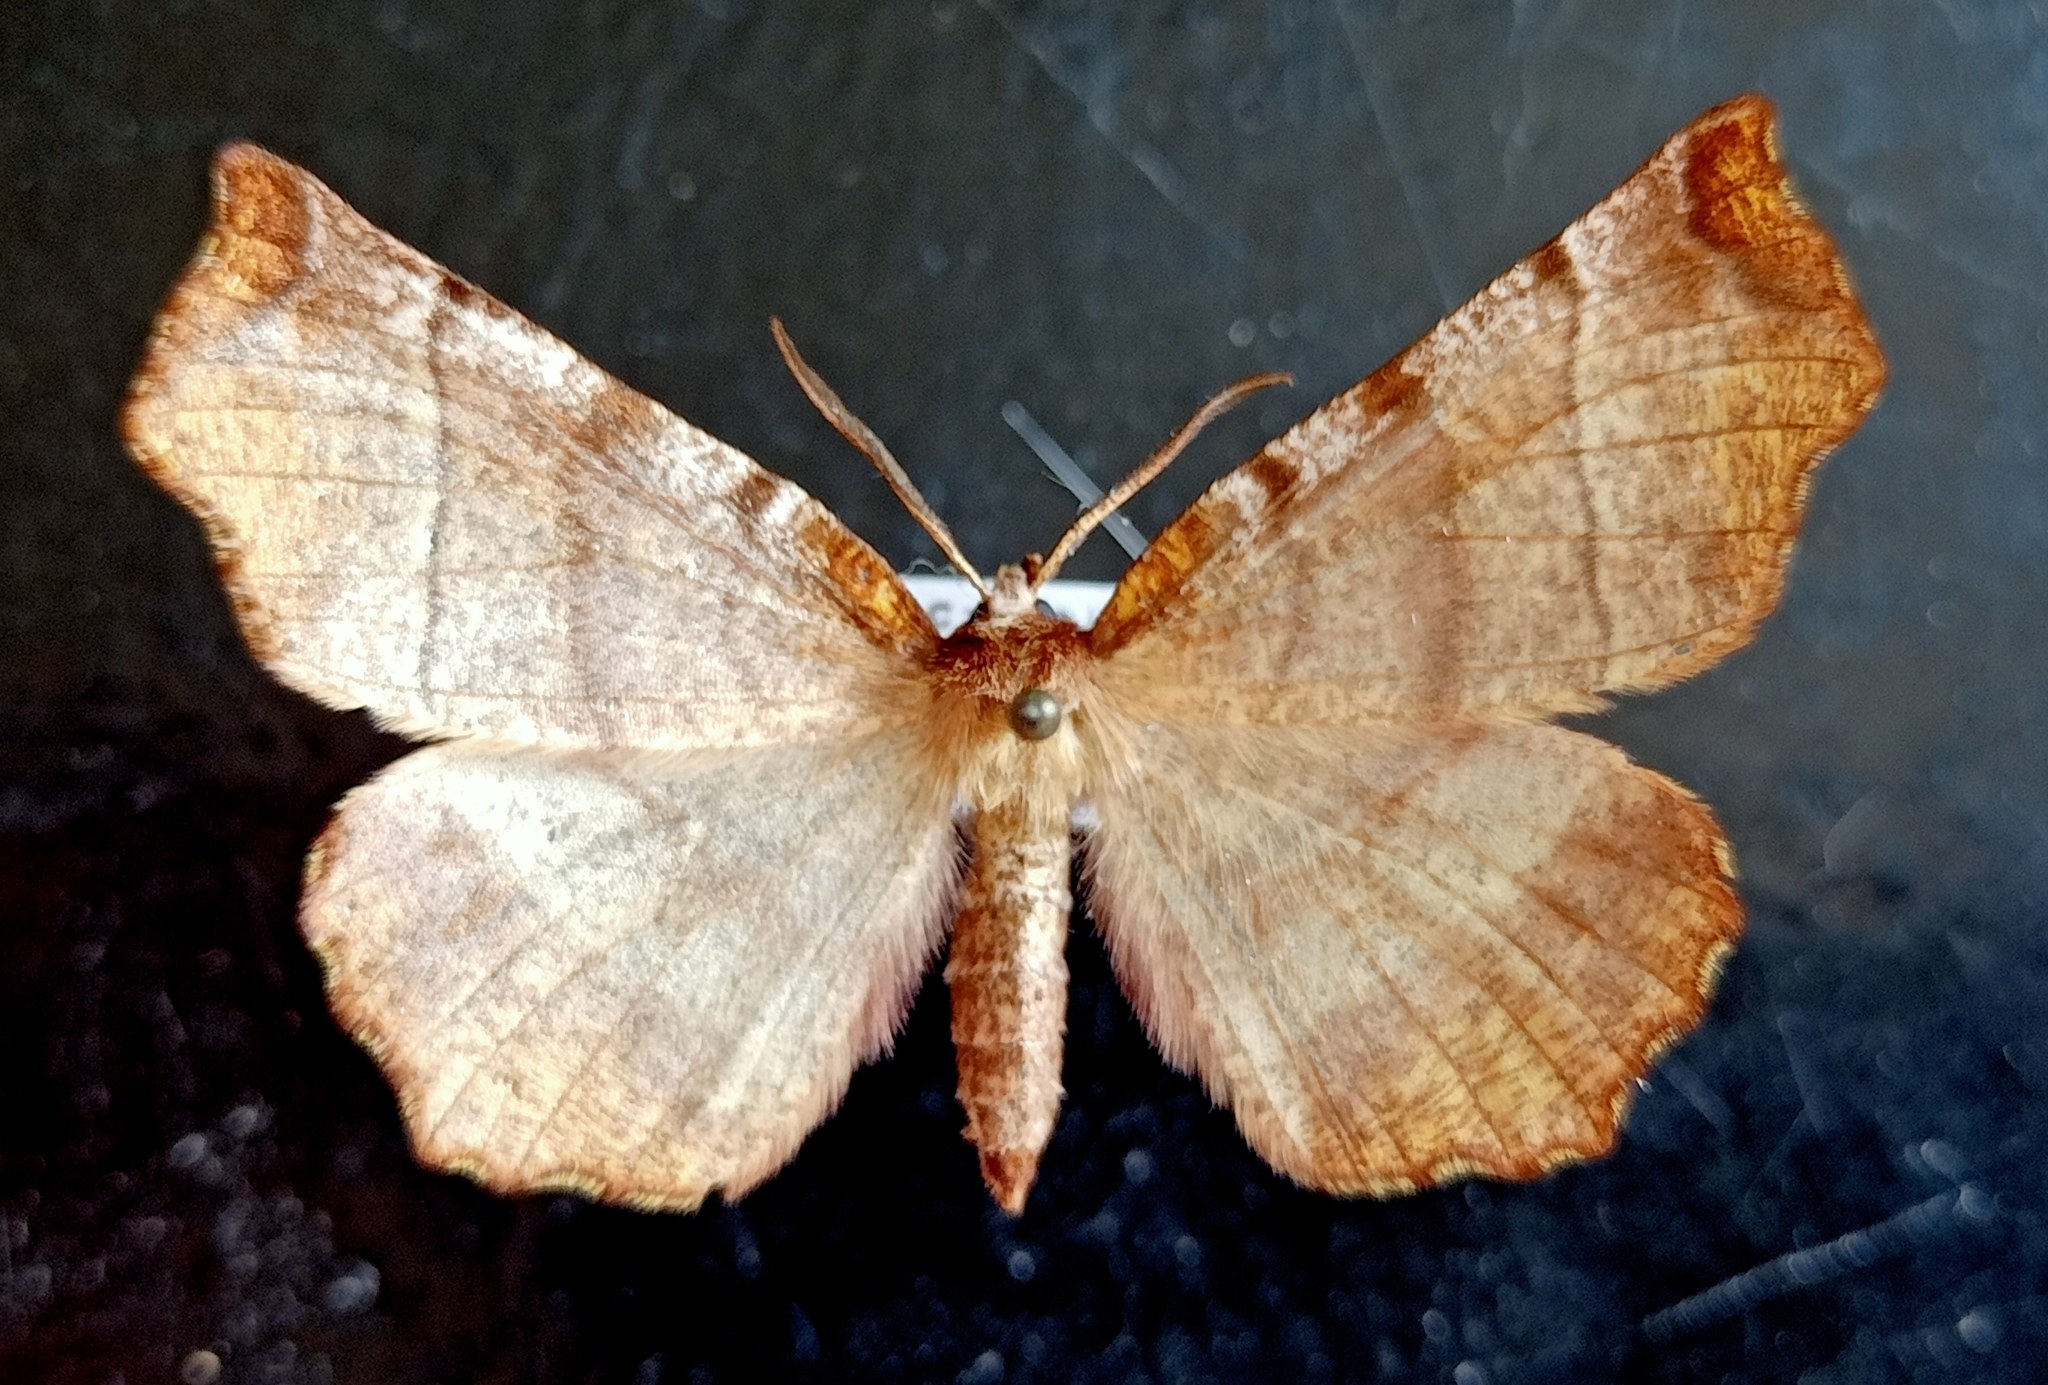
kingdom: Animalia
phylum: Arthropoda
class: Insecta
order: Lepidoptera
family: Geometridae
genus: Selenia
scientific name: Selenia dentaria
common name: Early thorn
